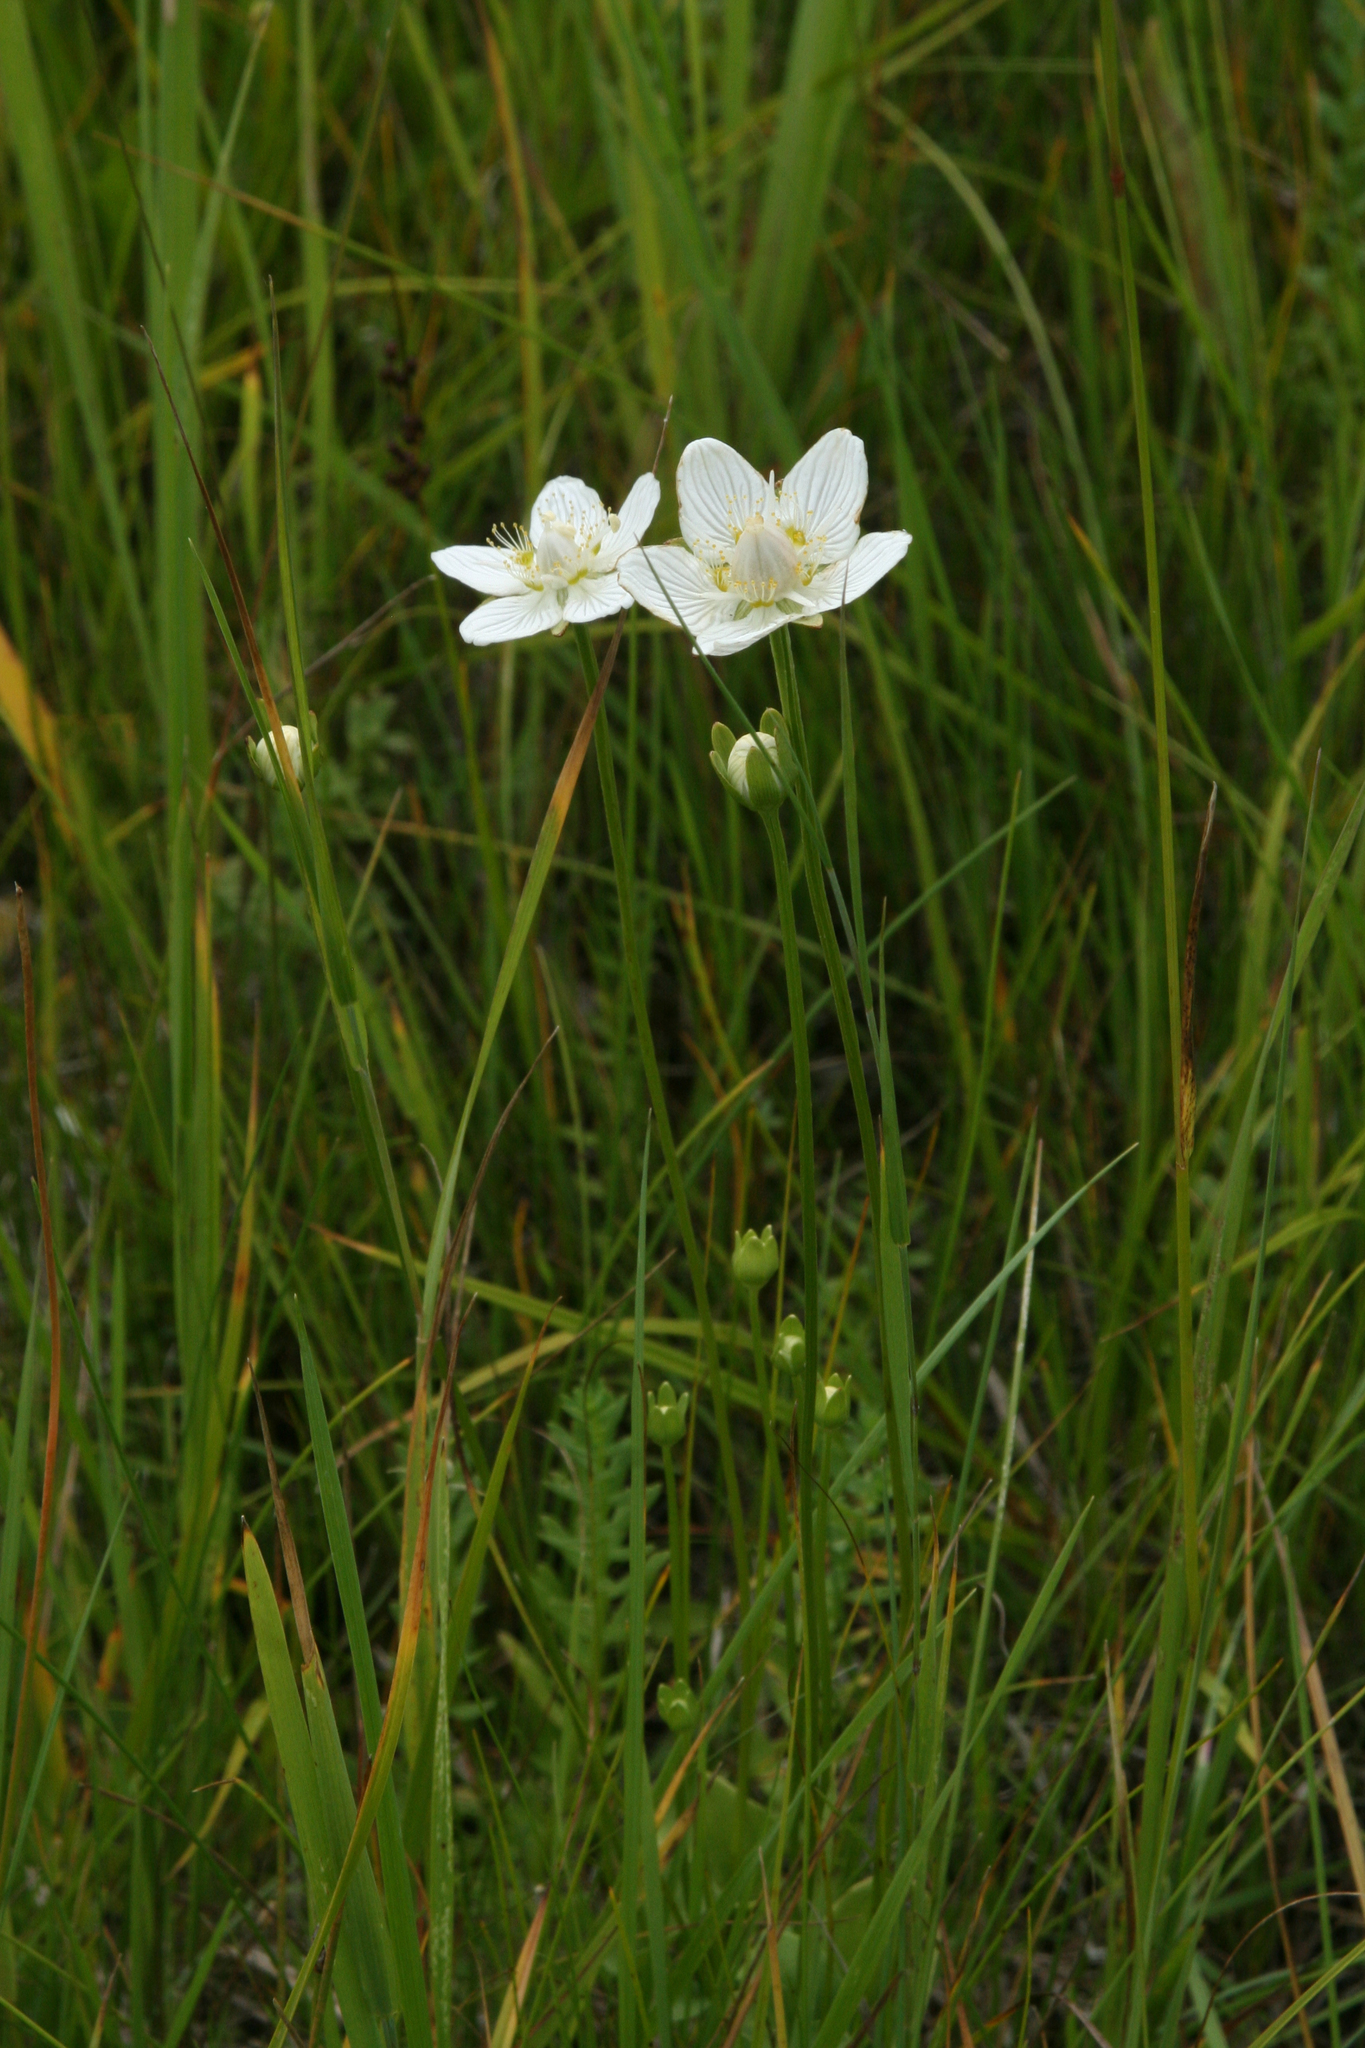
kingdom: Plantae
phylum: Tracheophyta
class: Magnoliopsida
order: Celastrales
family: Parnassiaceae
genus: Parnassia
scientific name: Parnassia palustris
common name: Grass-of-parnassus
